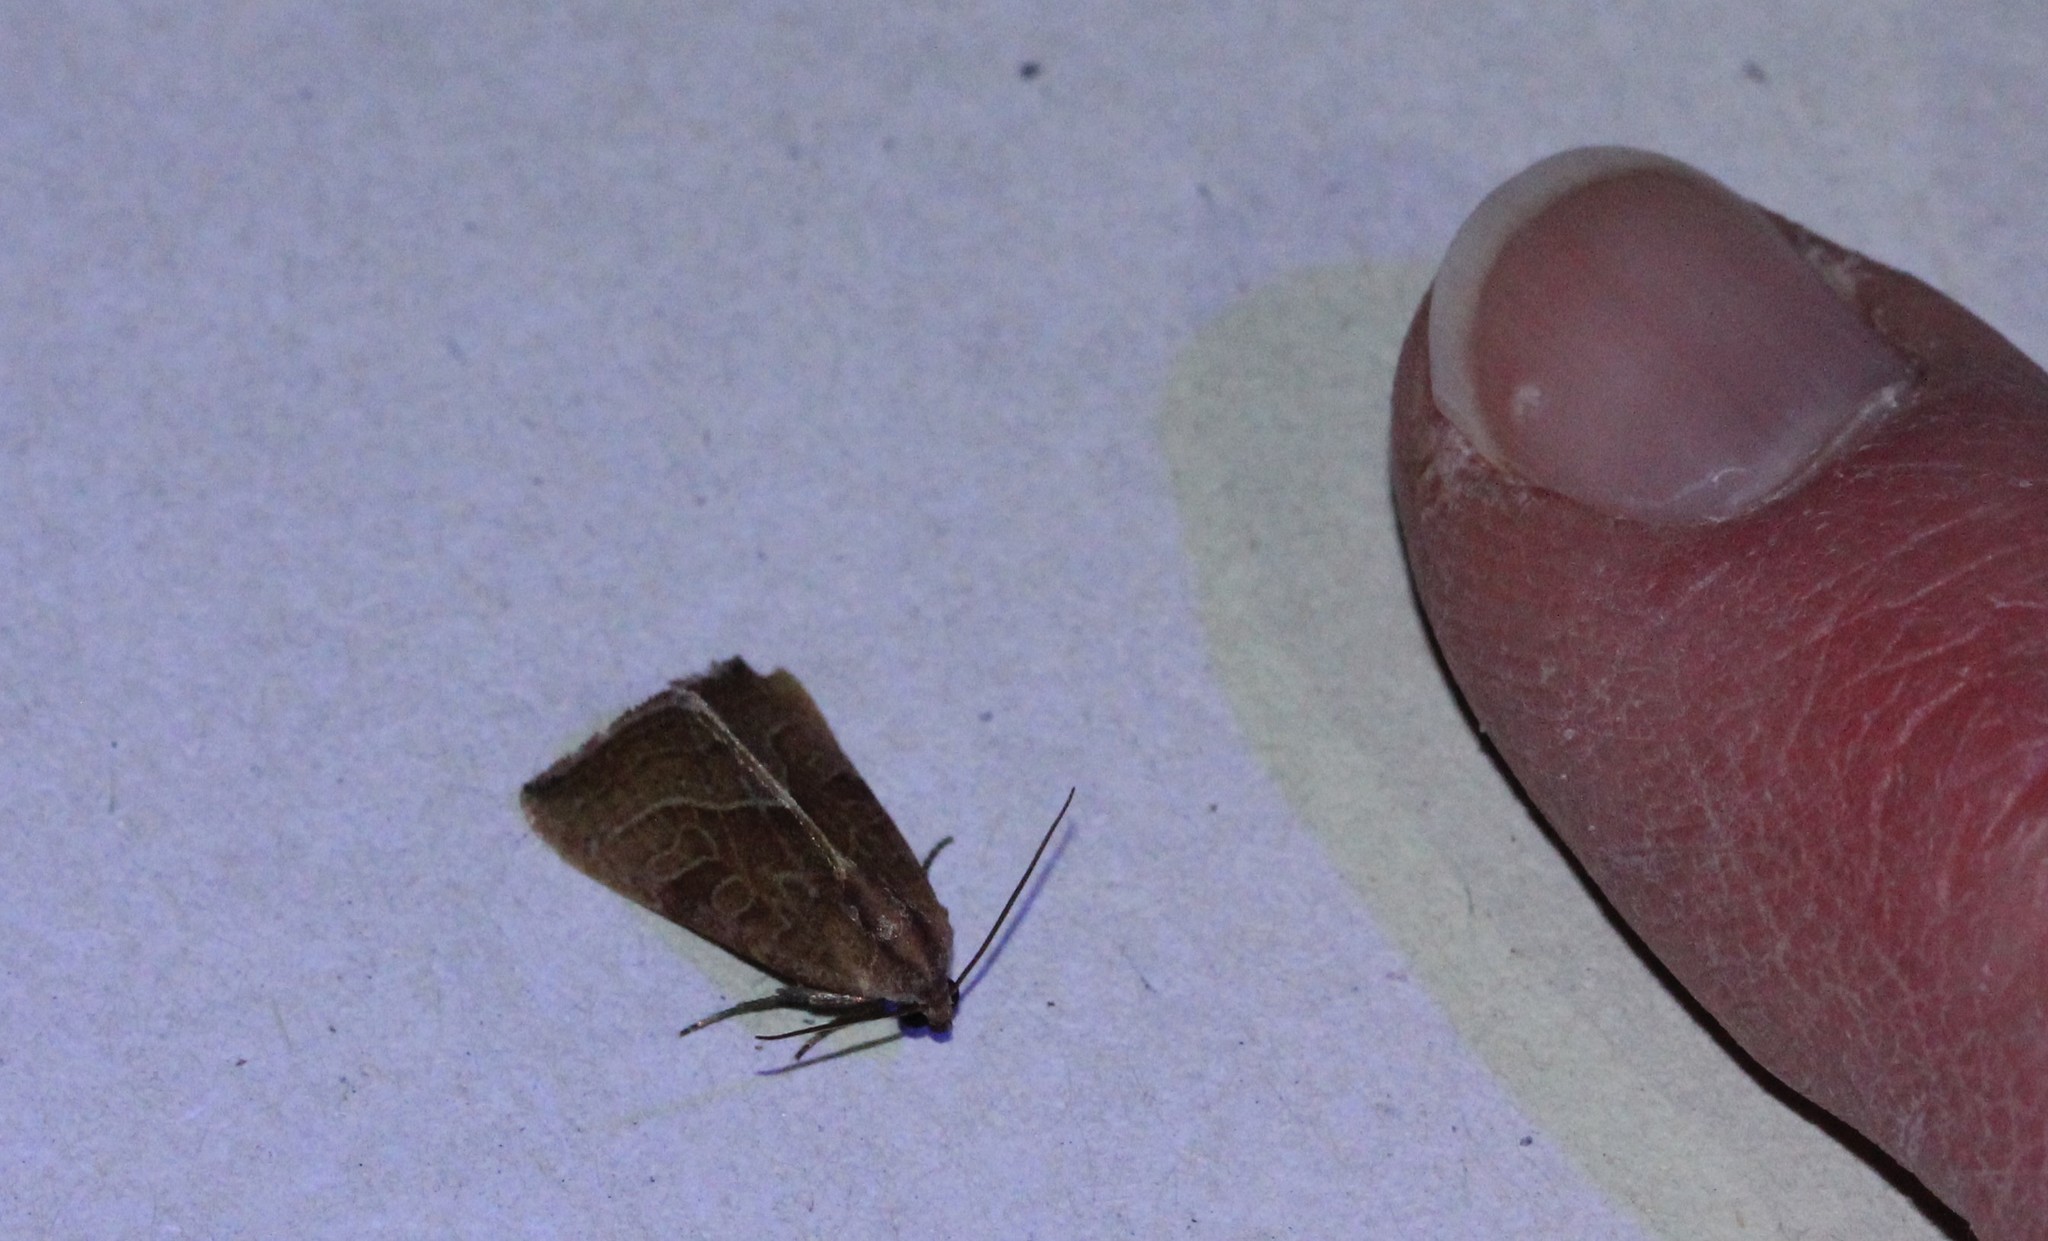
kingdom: Animalia
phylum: Arthropoda
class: Insecta
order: Lepidoptera
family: Noctuidae
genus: Galgula
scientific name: Galgula partita
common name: Wedgeling
